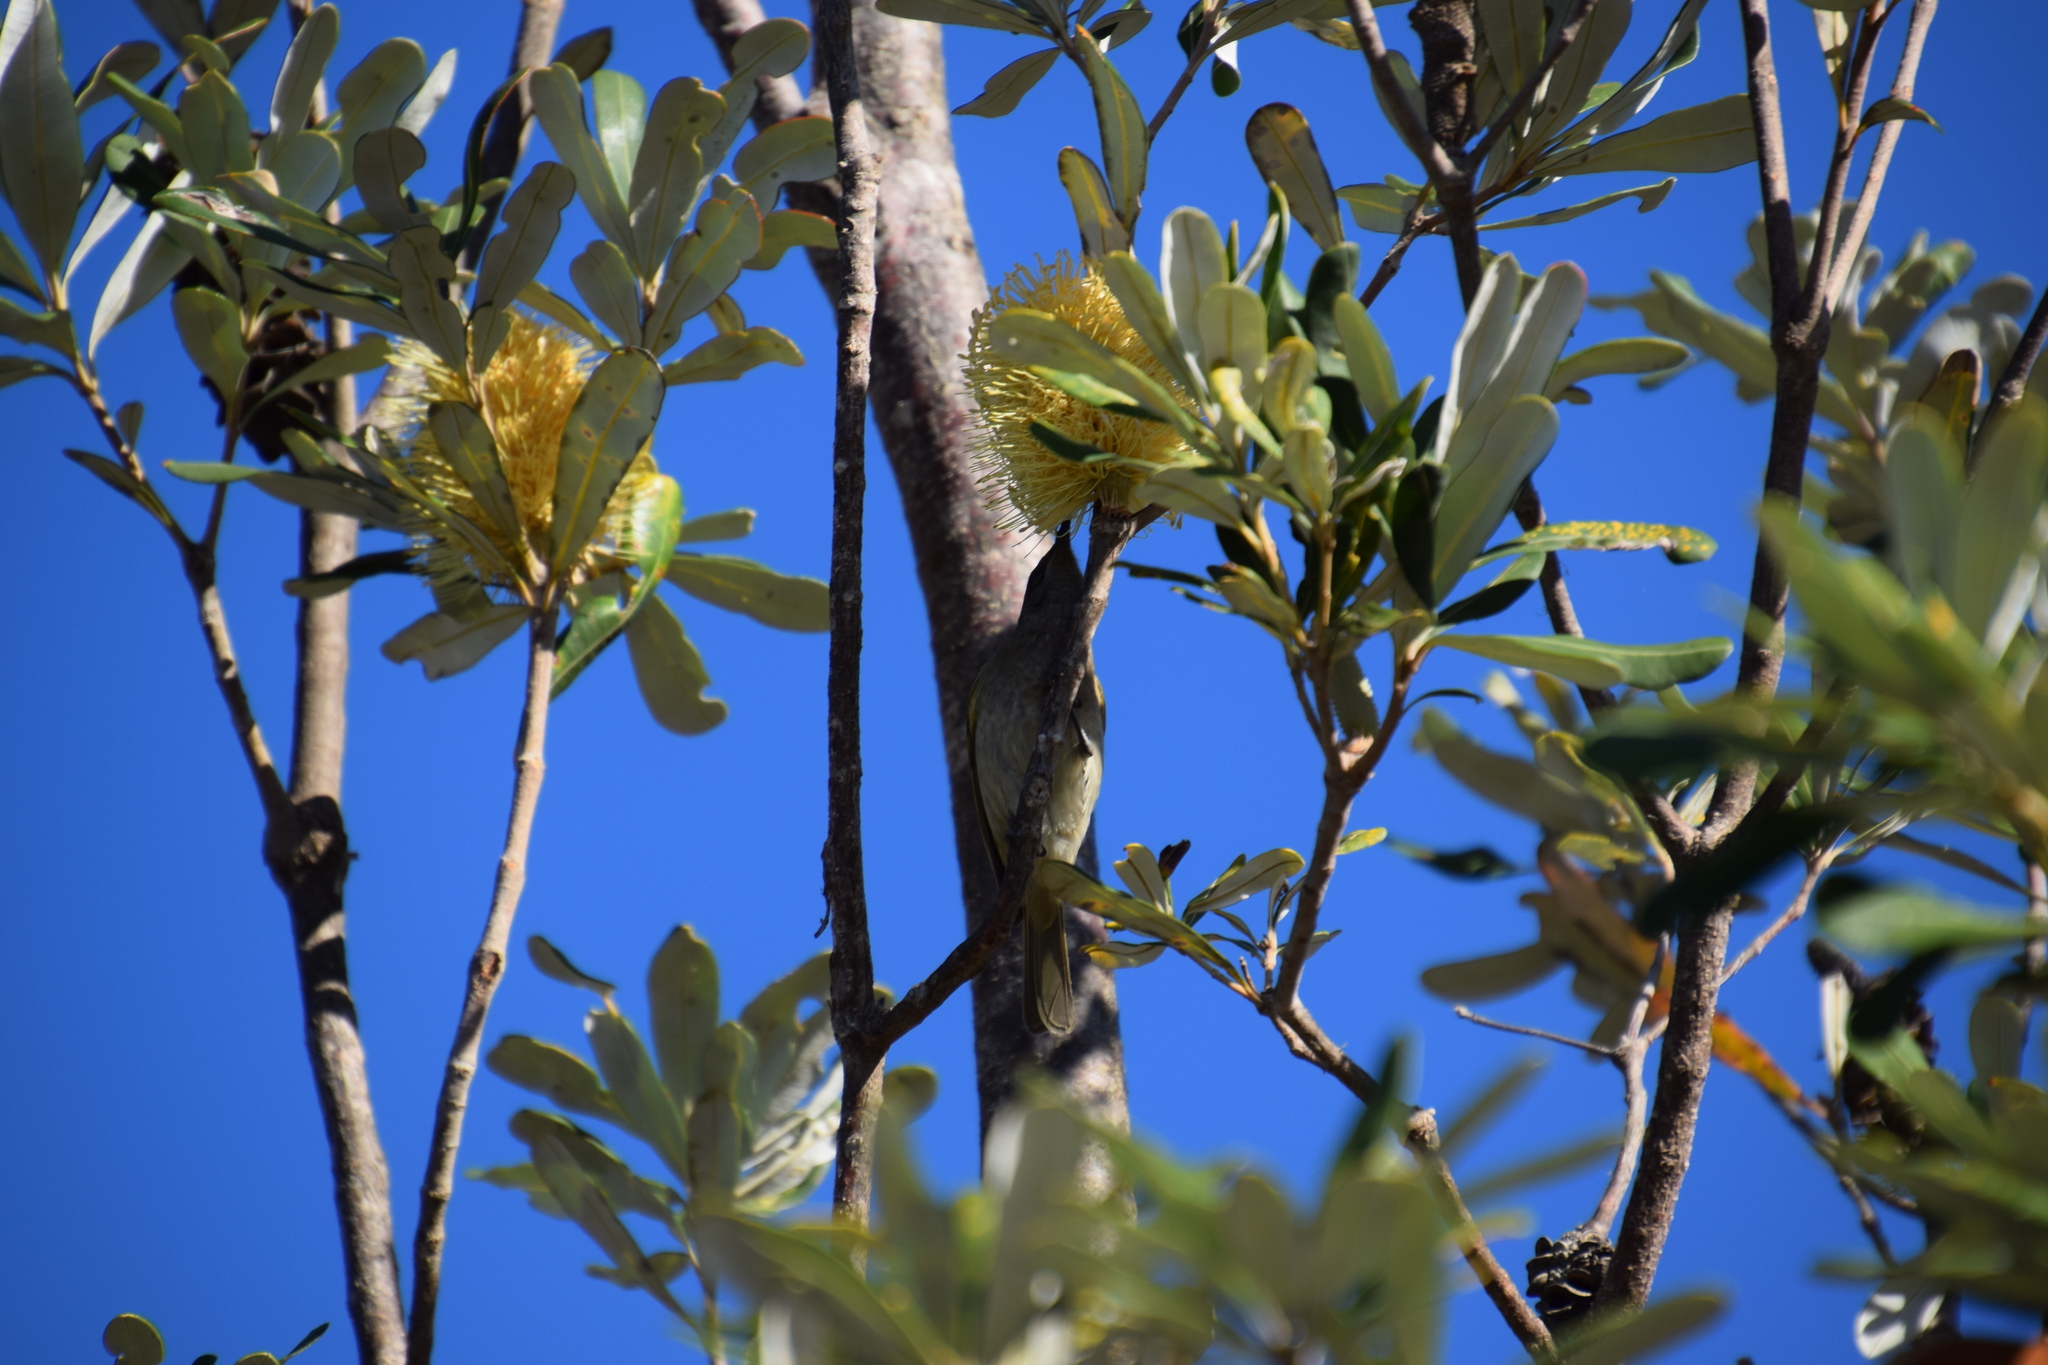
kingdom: Animalia
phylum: Chordata
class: Aves
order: Passeriformes
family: Meliphagidae
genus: Lichmera
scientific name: Lichmera indistincta
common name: Brown honeyeater
